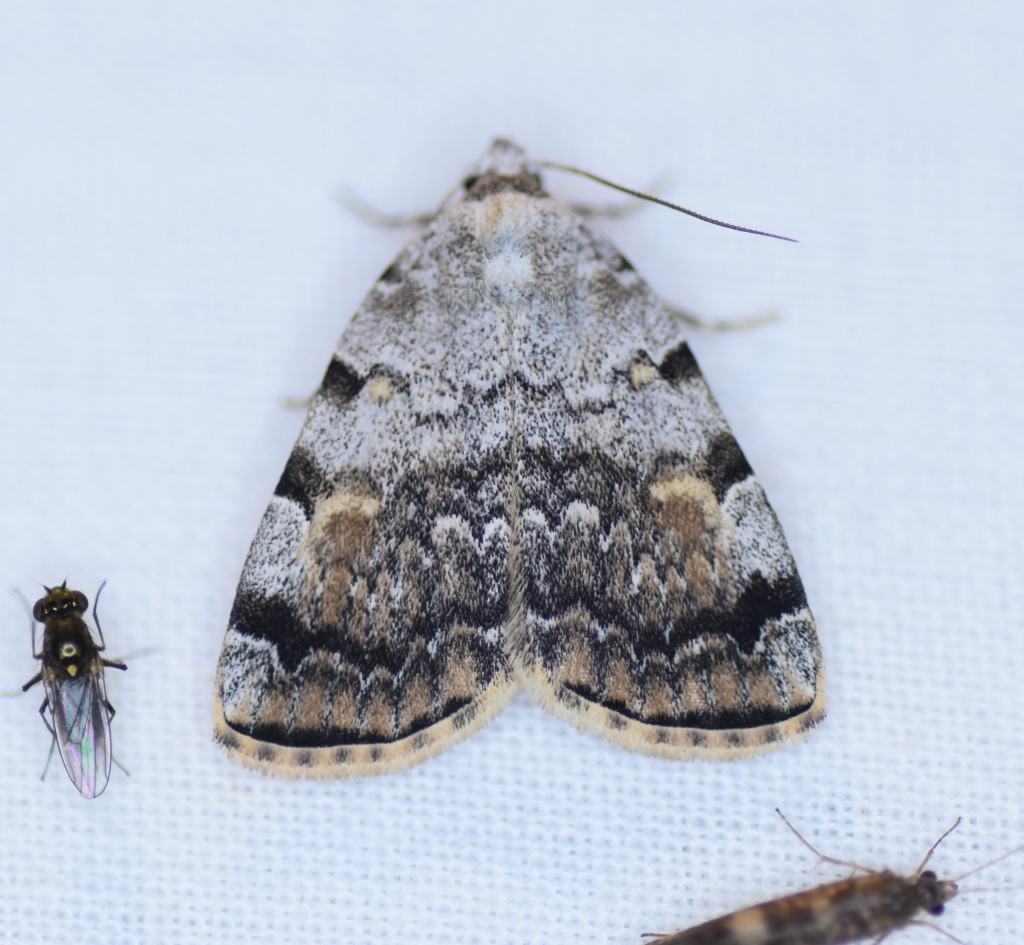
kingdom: Animalia
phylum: Arthropoda
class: Insecta
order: Lepidoptera
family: Erebidae
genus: Idia
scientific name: Idia americalis
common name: American idia moth
